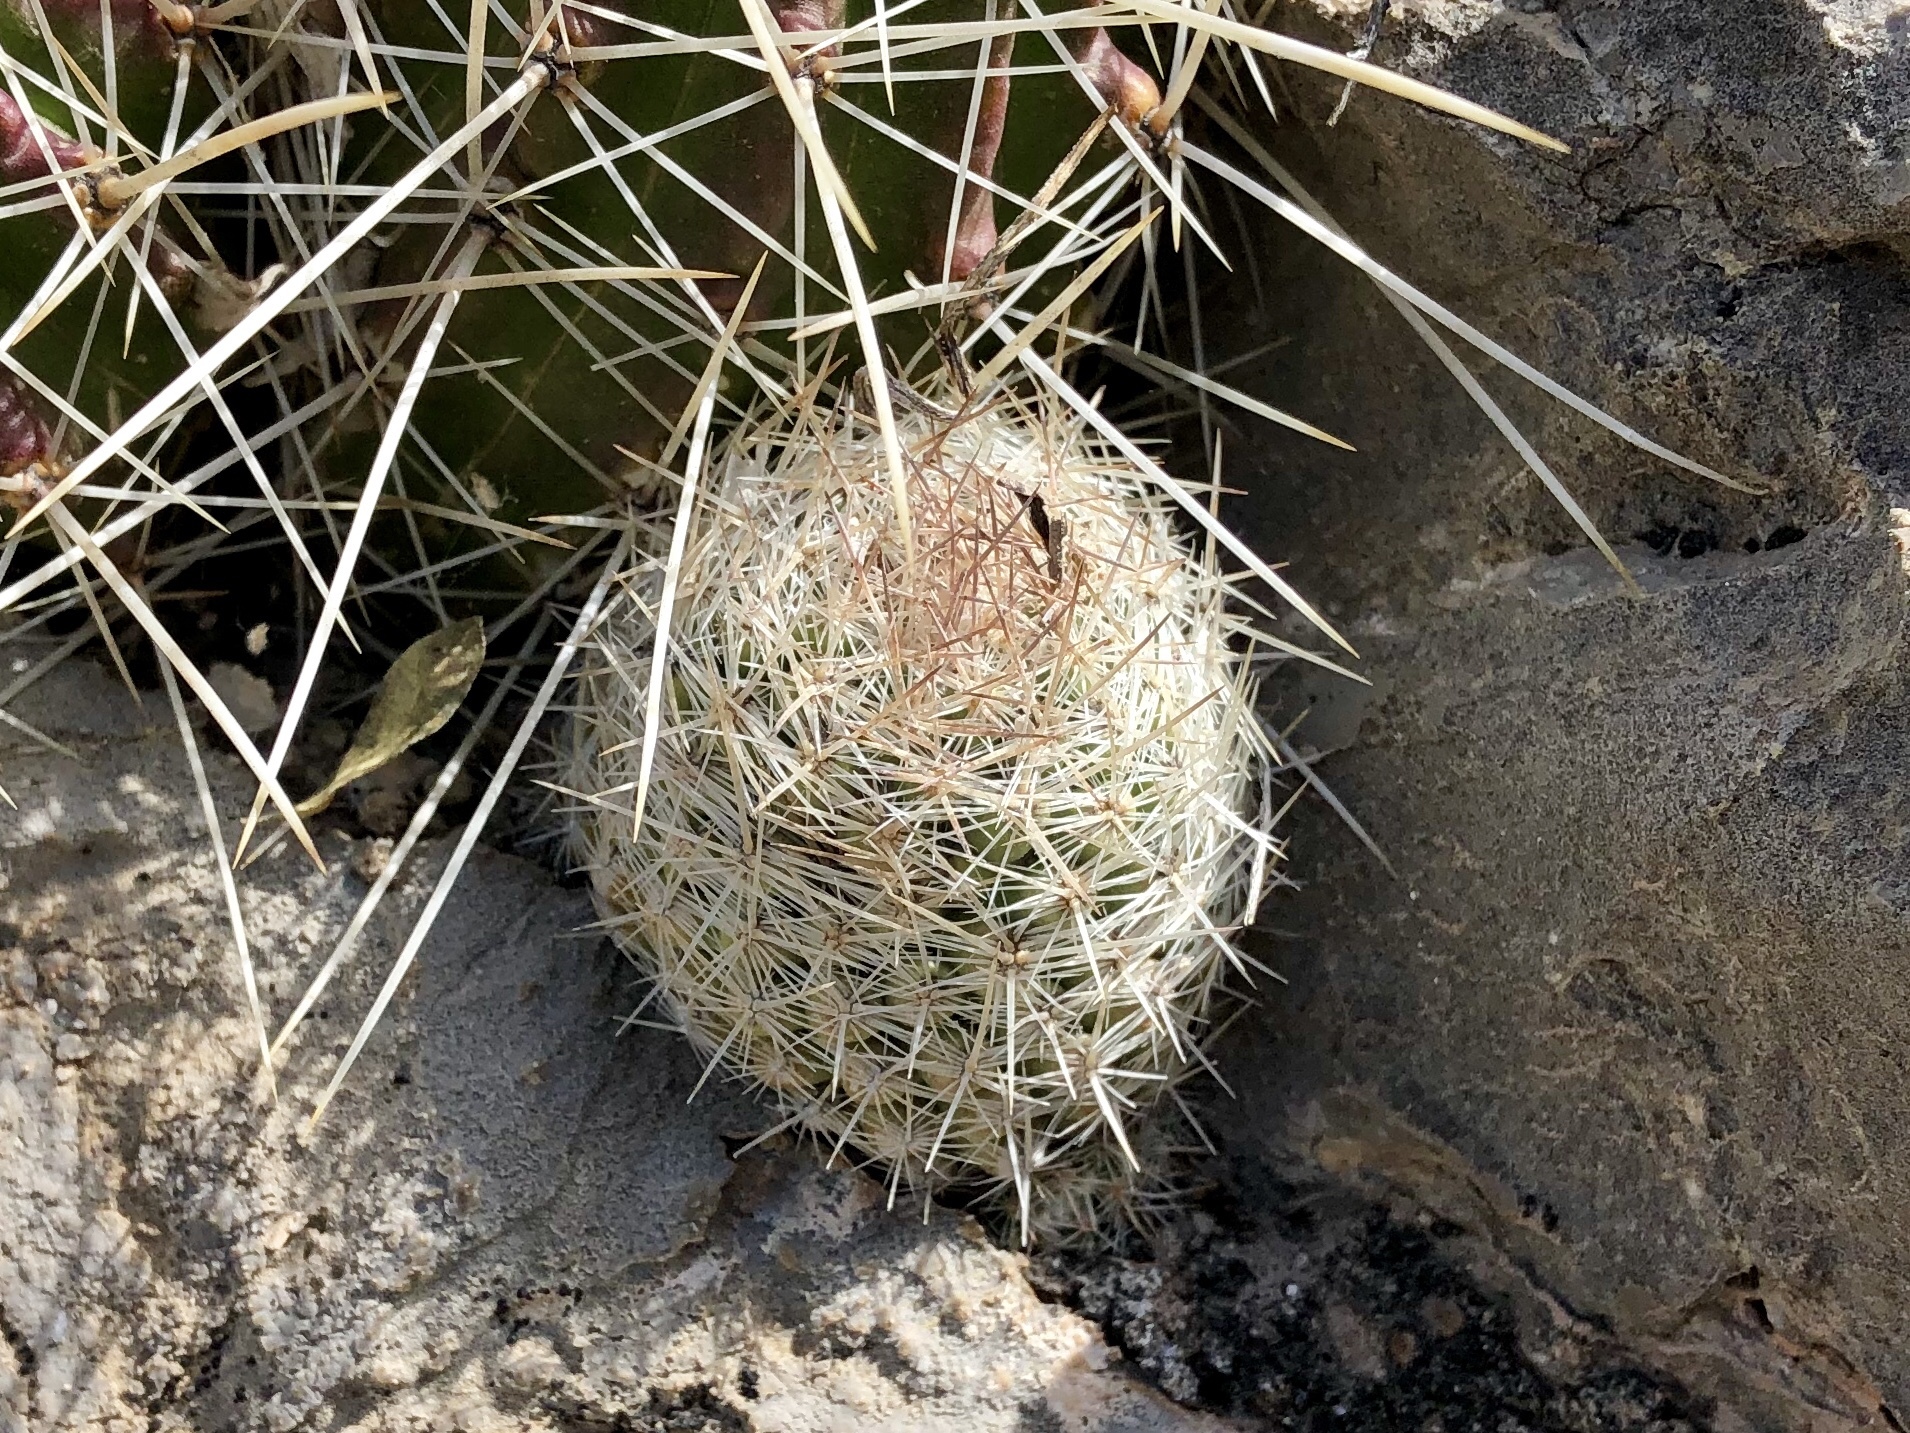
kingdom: Plantae
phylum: Tracheophyta
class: Magnoliopsida
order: Caryophyllales
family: Cactaceae
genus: Pelecyphora
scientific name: Pelecyphora tuberculosa
